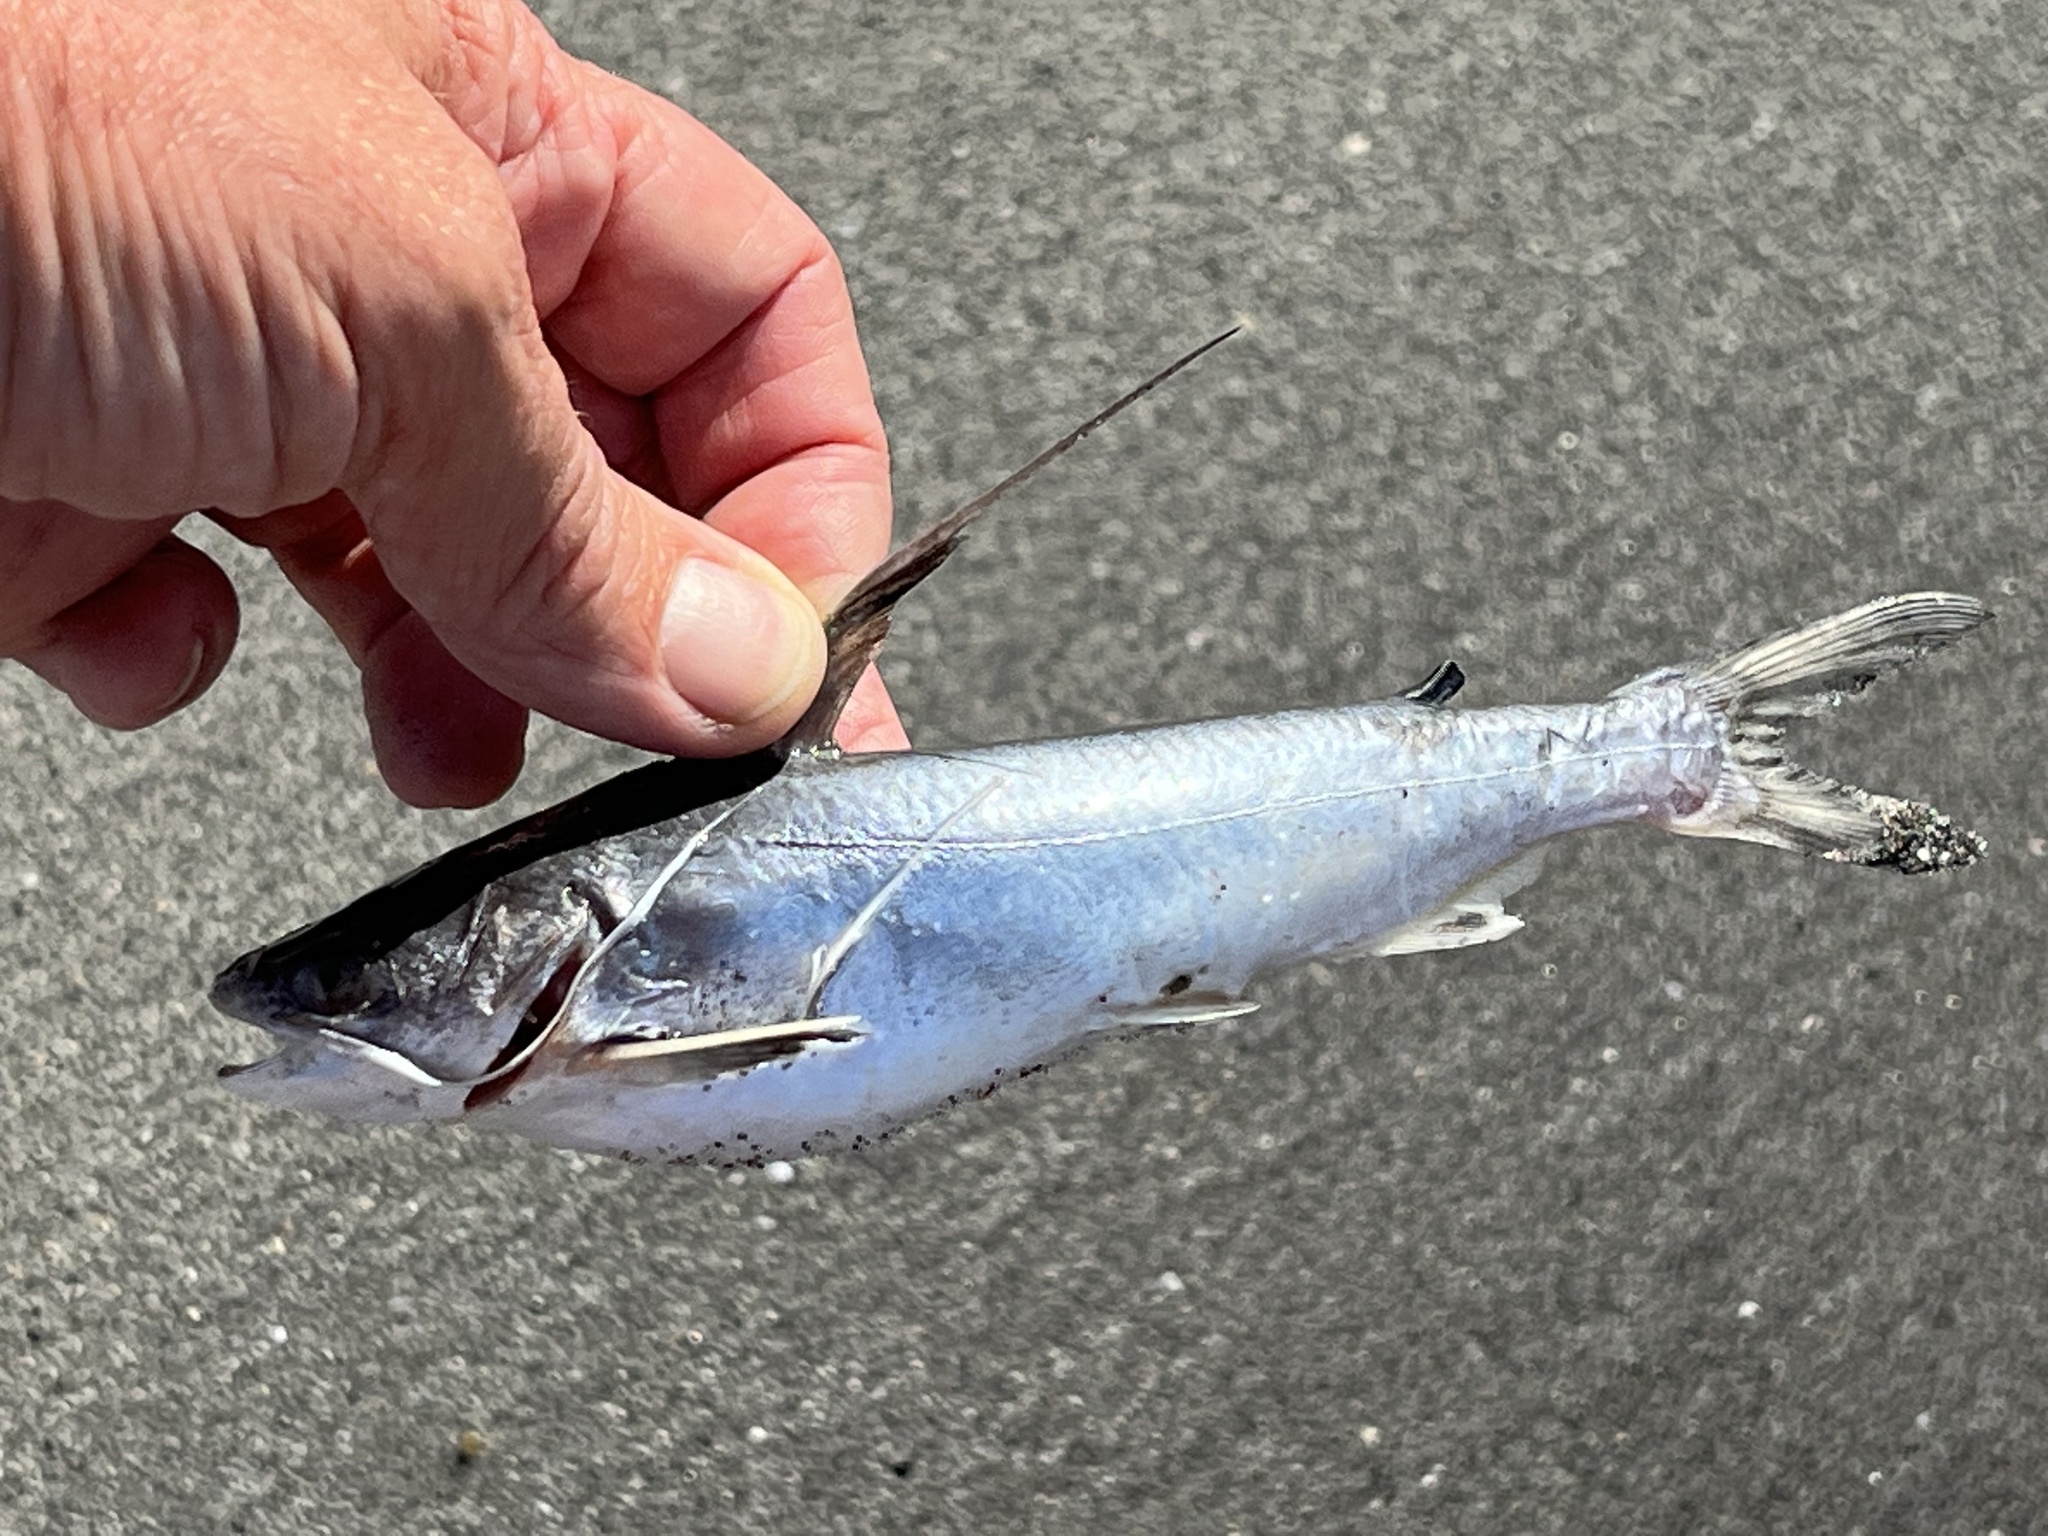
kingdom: Animalia
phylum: Chordata
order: Siluriformes
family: Ariidae
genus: Bagre
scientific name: Bagre marinus
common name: Gafftopsail sea catfish
